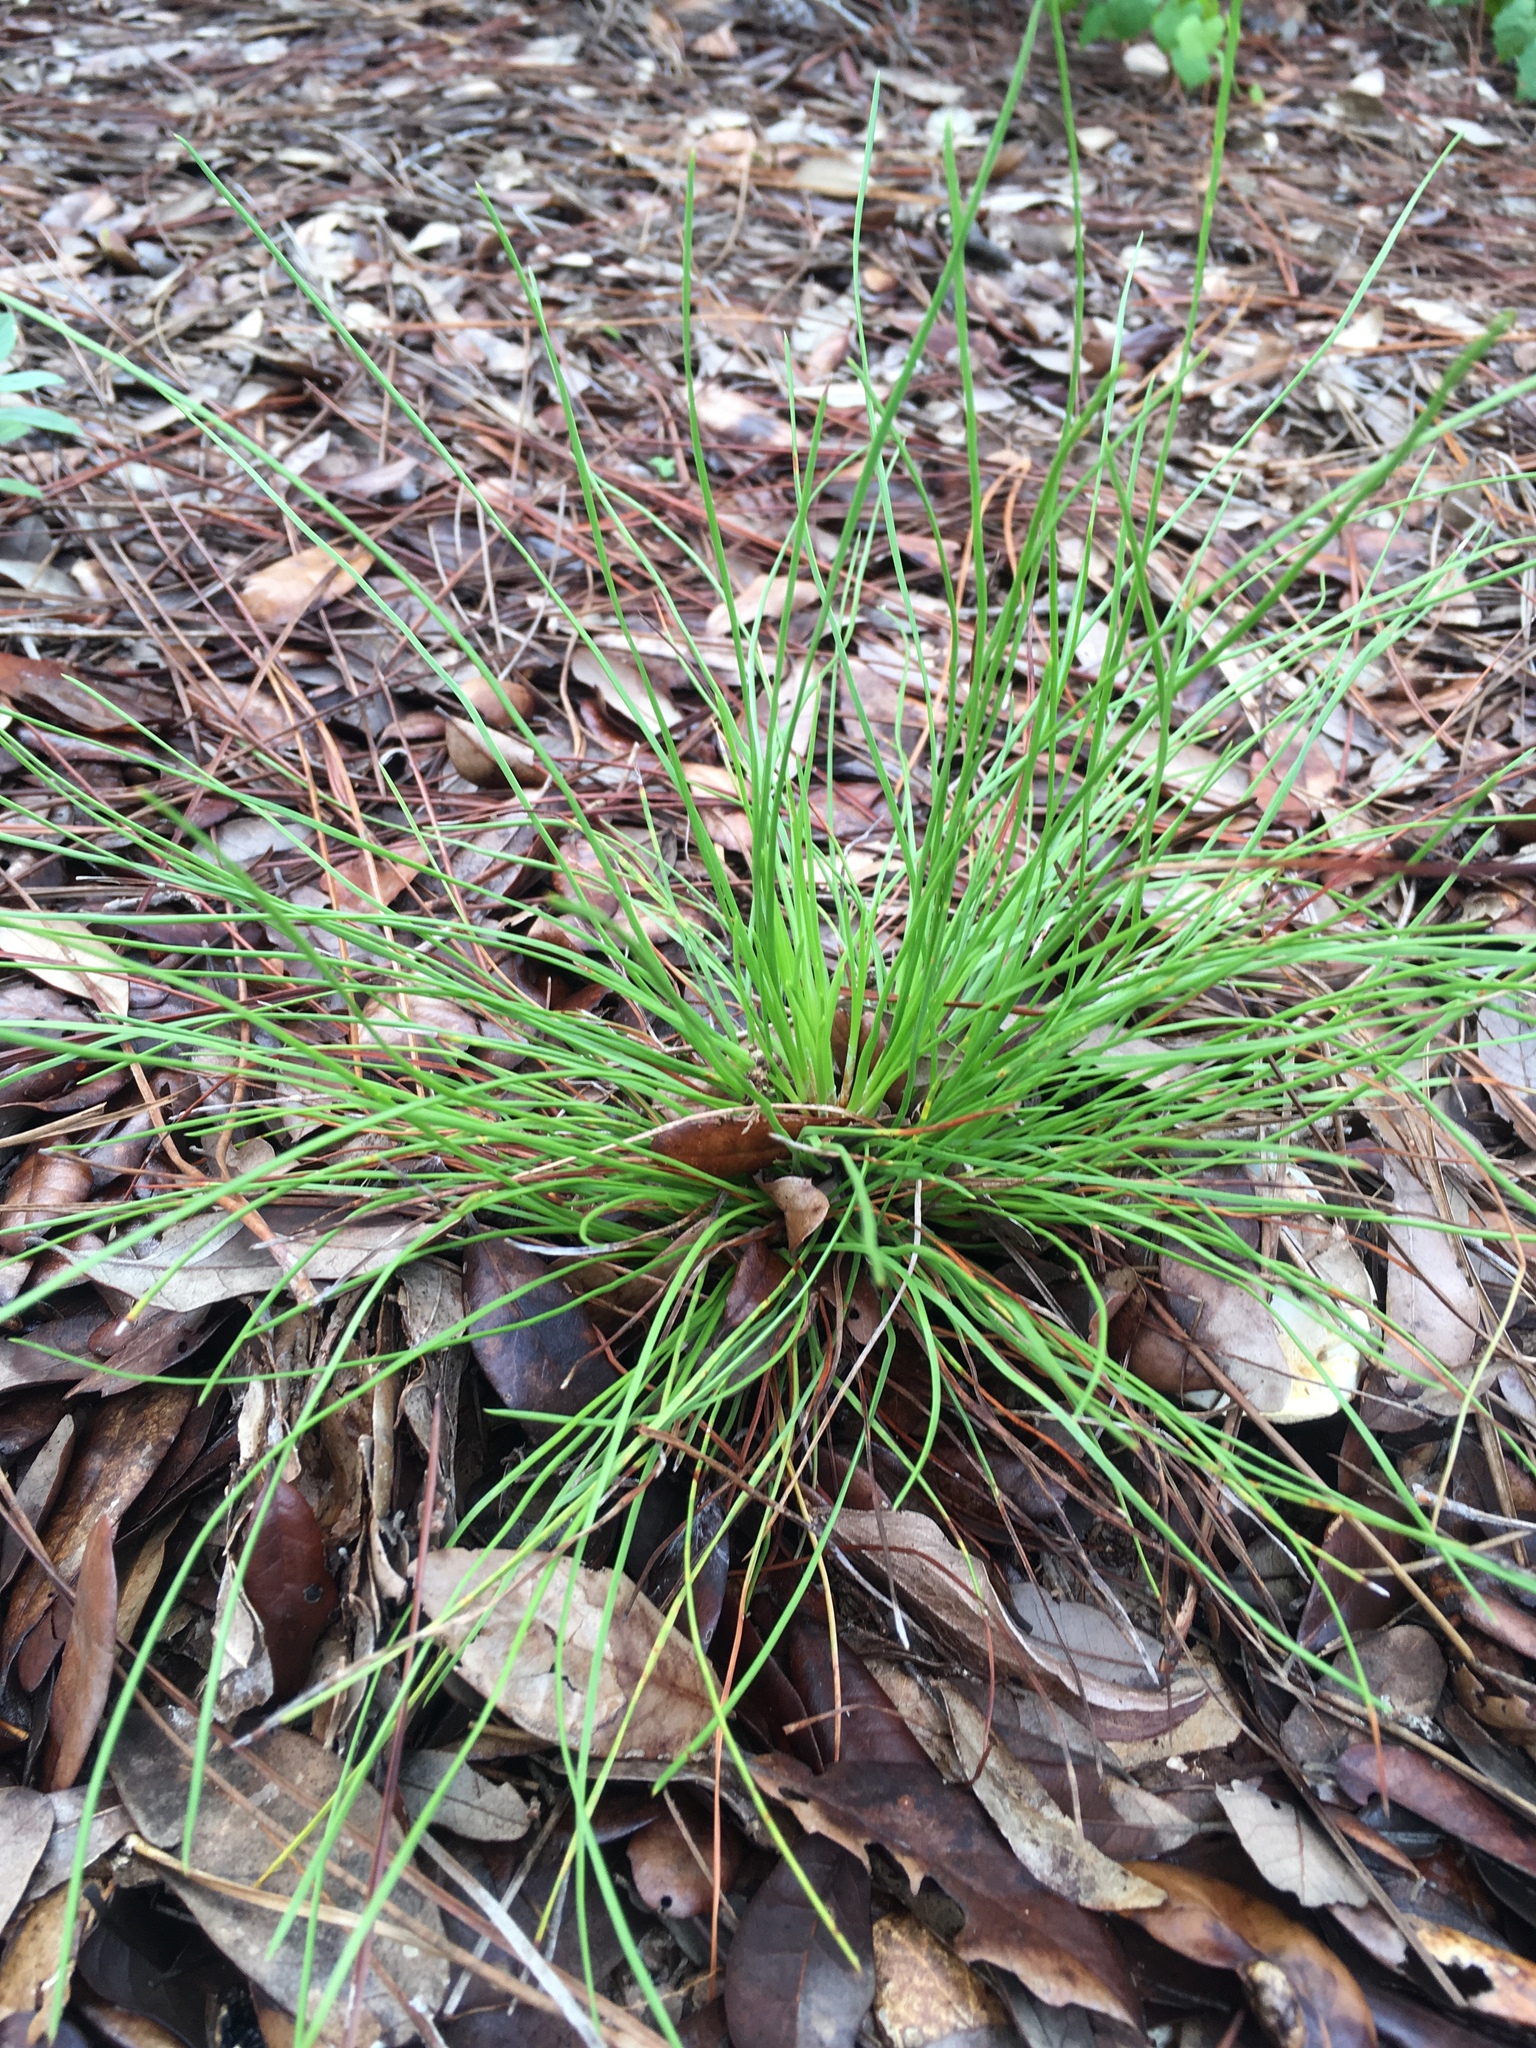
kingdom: Plantae
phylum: Tracheophyta
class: Pinopsida
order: Pinales
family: Pinaceae
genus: Pinus
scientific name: Pinus elliottii
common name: Slash pine
